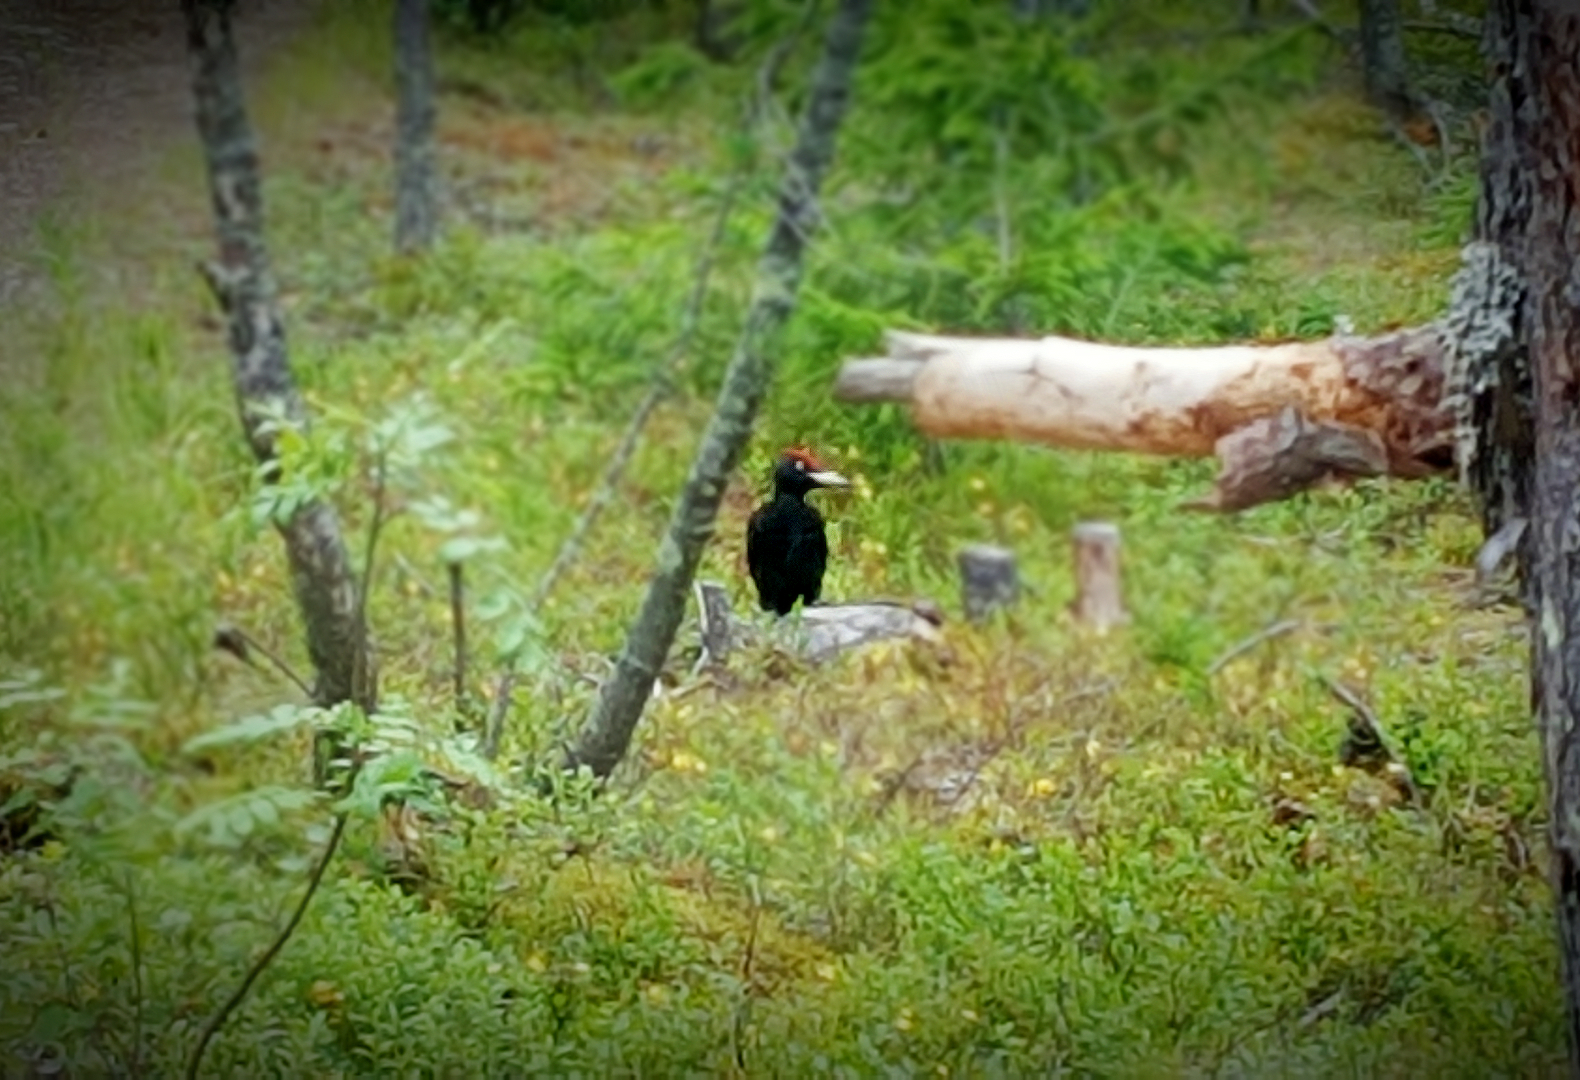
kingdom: Animalia
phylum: Chordata
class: Aves
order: Piciformes
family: Picidae
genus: Dryocopus
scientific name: Dryocopus martius
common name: Black woodpecker
